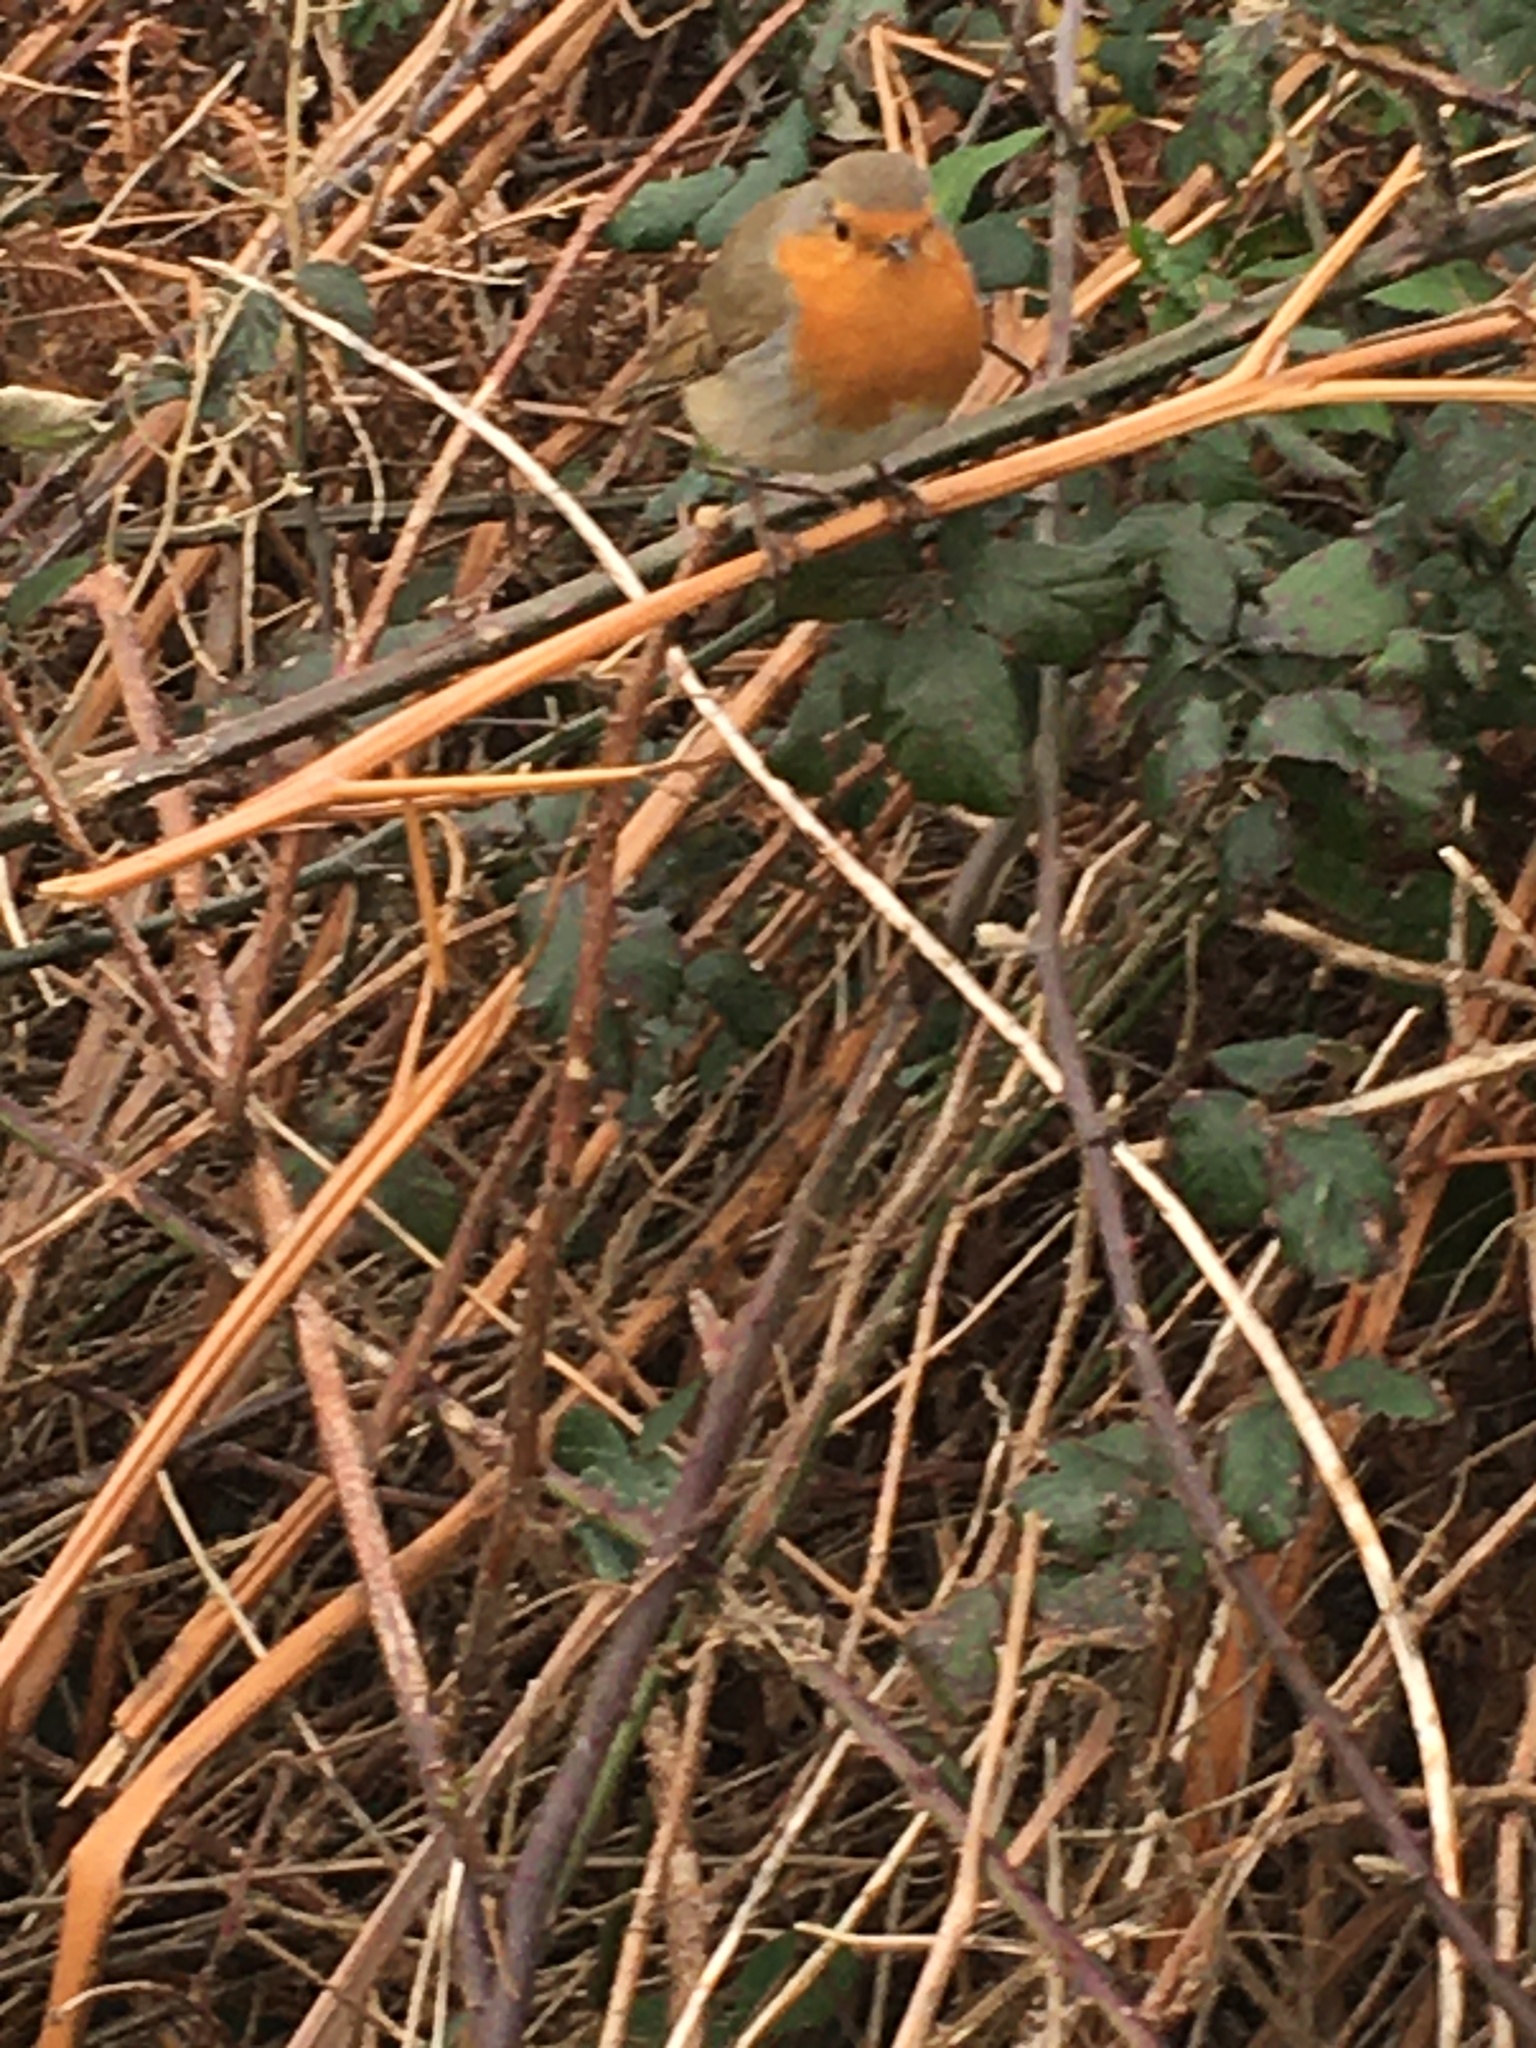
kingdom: Animalia
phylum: Chordata
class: Aves
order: Passeriformes
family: Muscicapidae
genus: Erithacus
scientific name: Erithacus rubecula
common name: European robin
